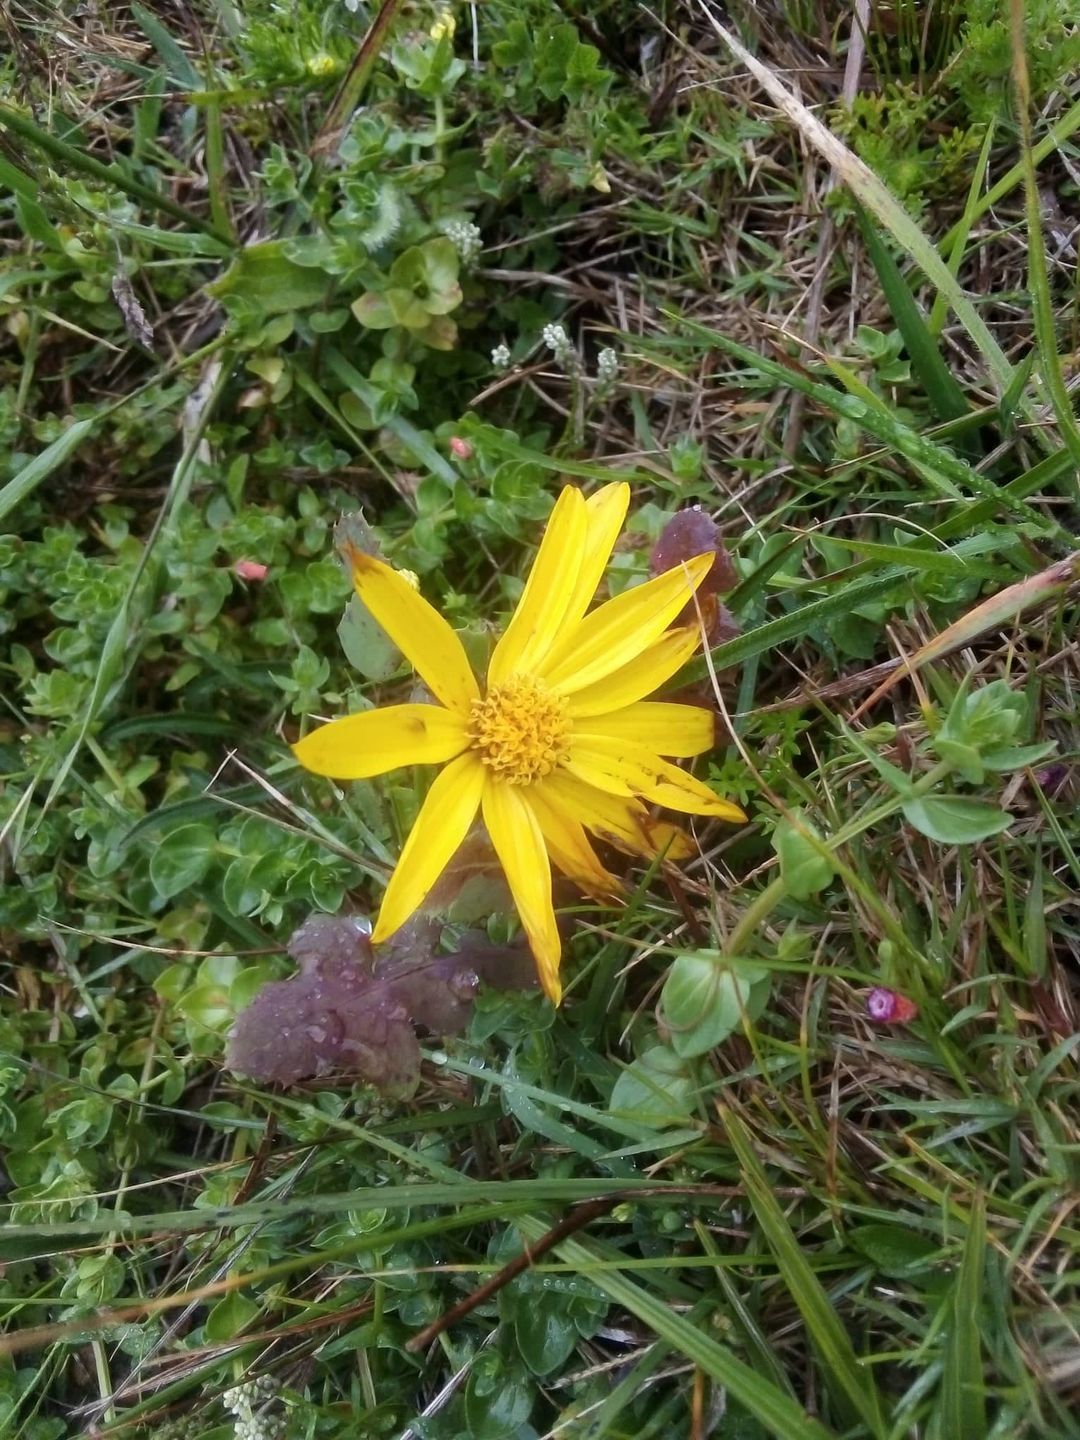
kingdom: Plantae
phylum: Tracheophyta
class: Magnoliopsida
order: Asterales
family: Asteraceae
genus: Wedelia
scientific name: Wedelia montevidensis
